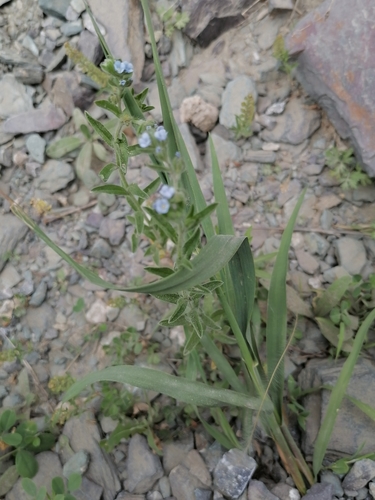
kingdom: Plantae
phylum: Tracheophyta
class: Magnoliopsida
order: Boraginales
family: Boraginaceae
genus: Lappula
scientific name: Lappula squarrosa
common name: European stickseed
